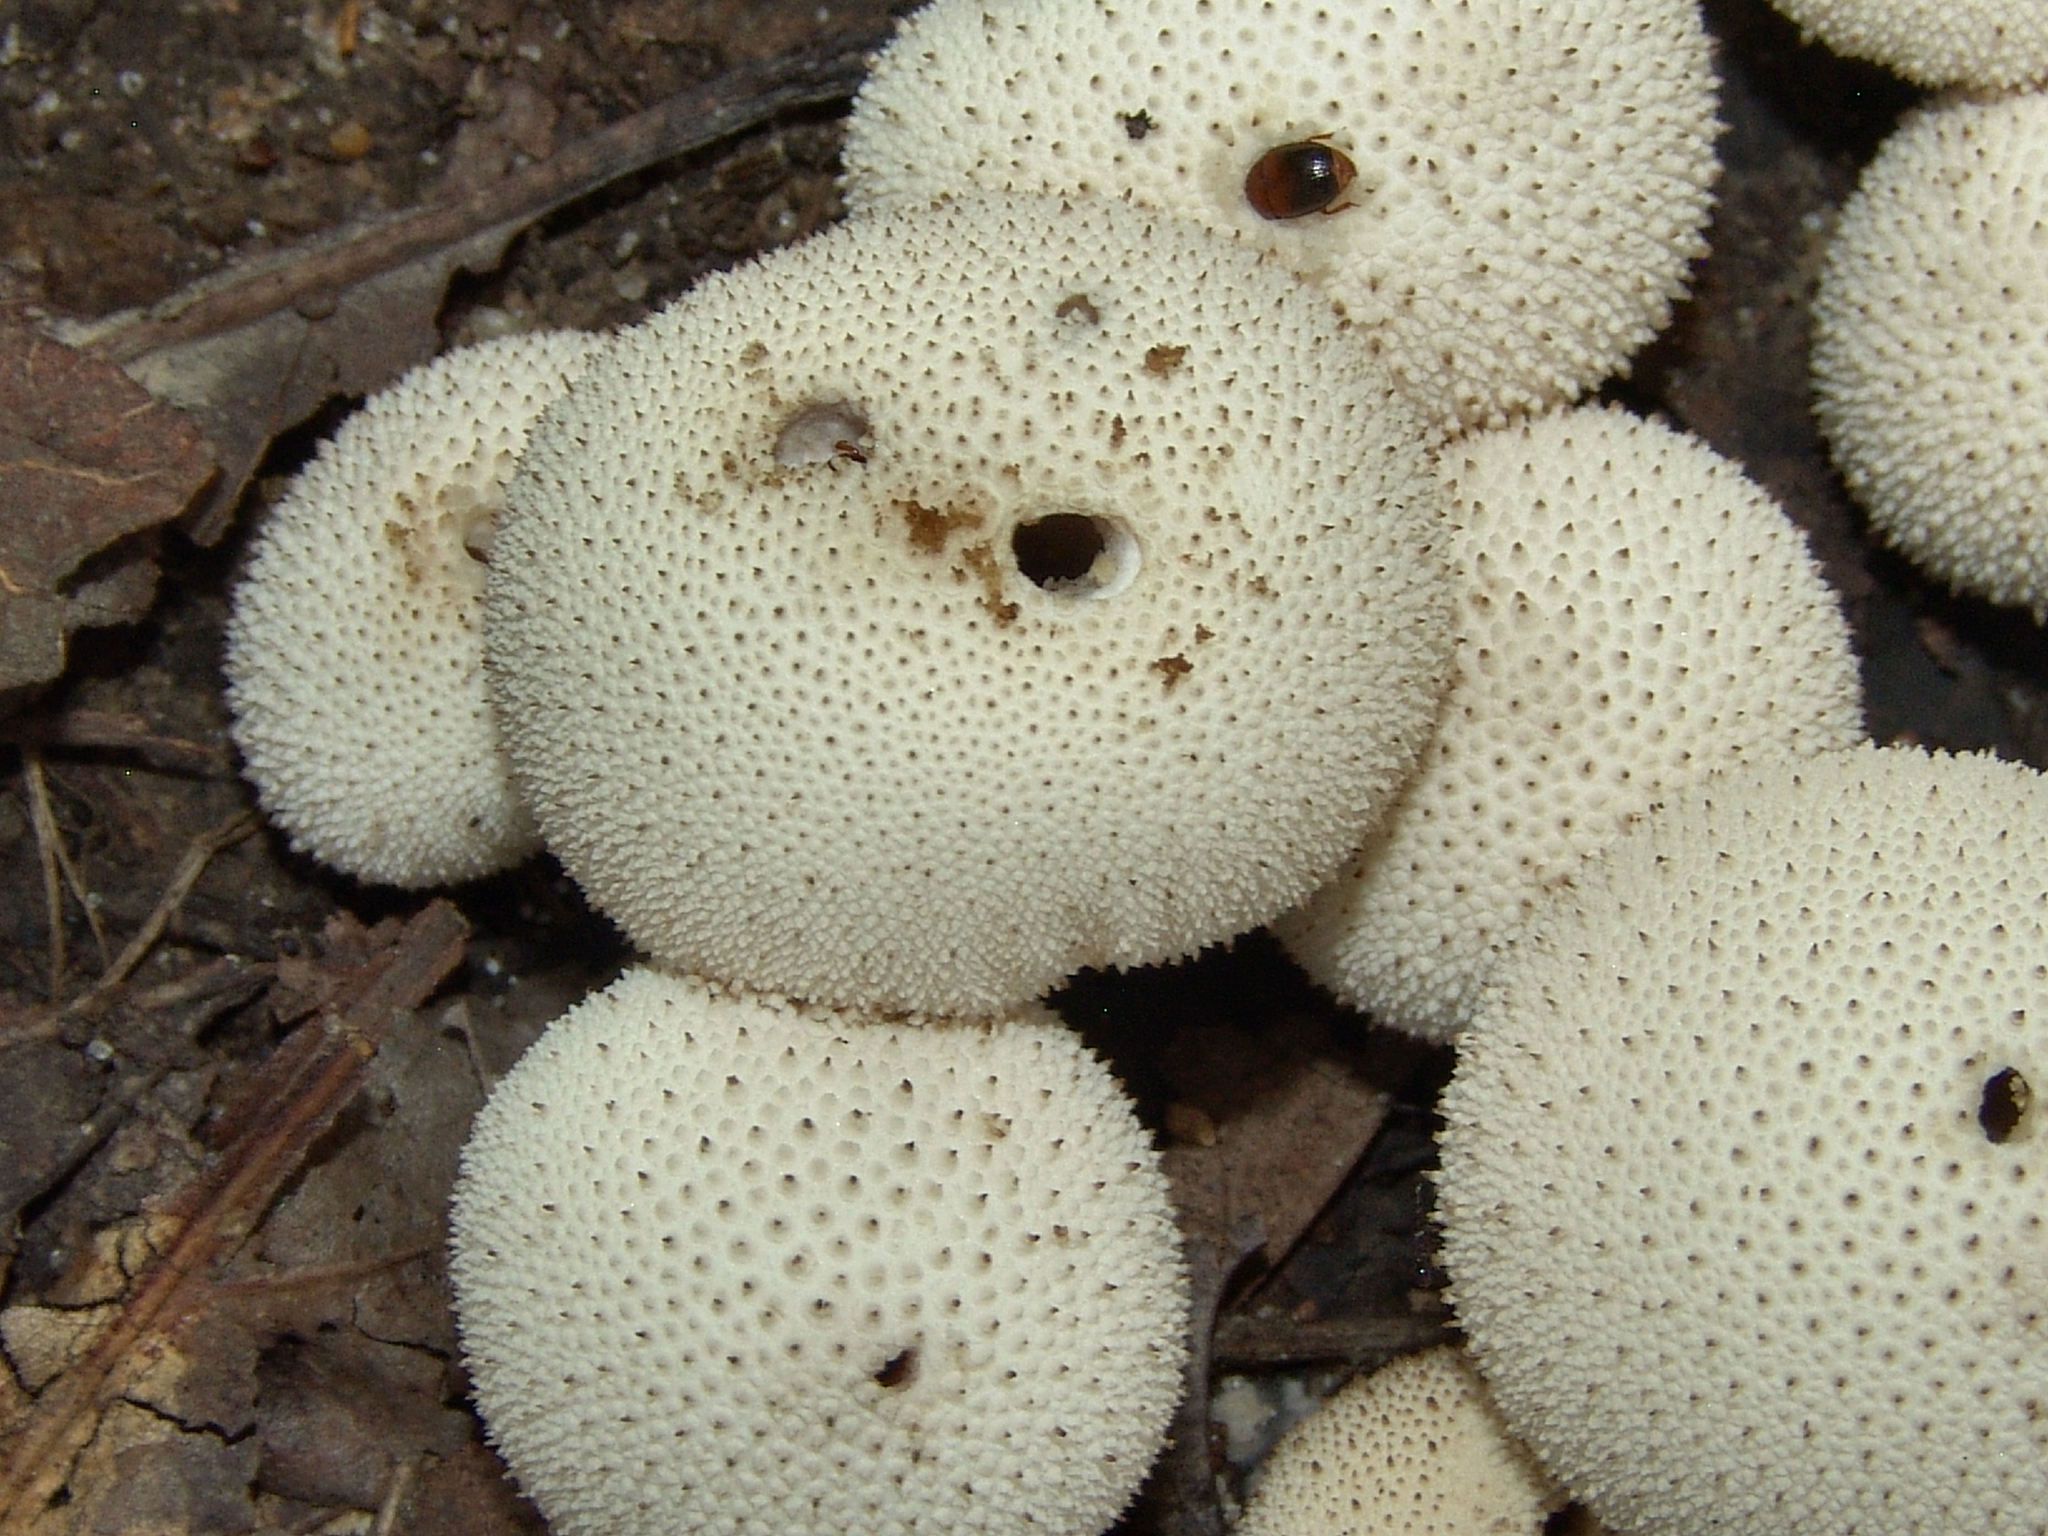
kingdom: Fungi
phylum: Basidiomycota
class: Agaricomycetes
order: Agaricales
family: Lycoperdaceae
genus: Lycoperdon
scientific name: Lycoperdon perlatum
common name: Common puffball
